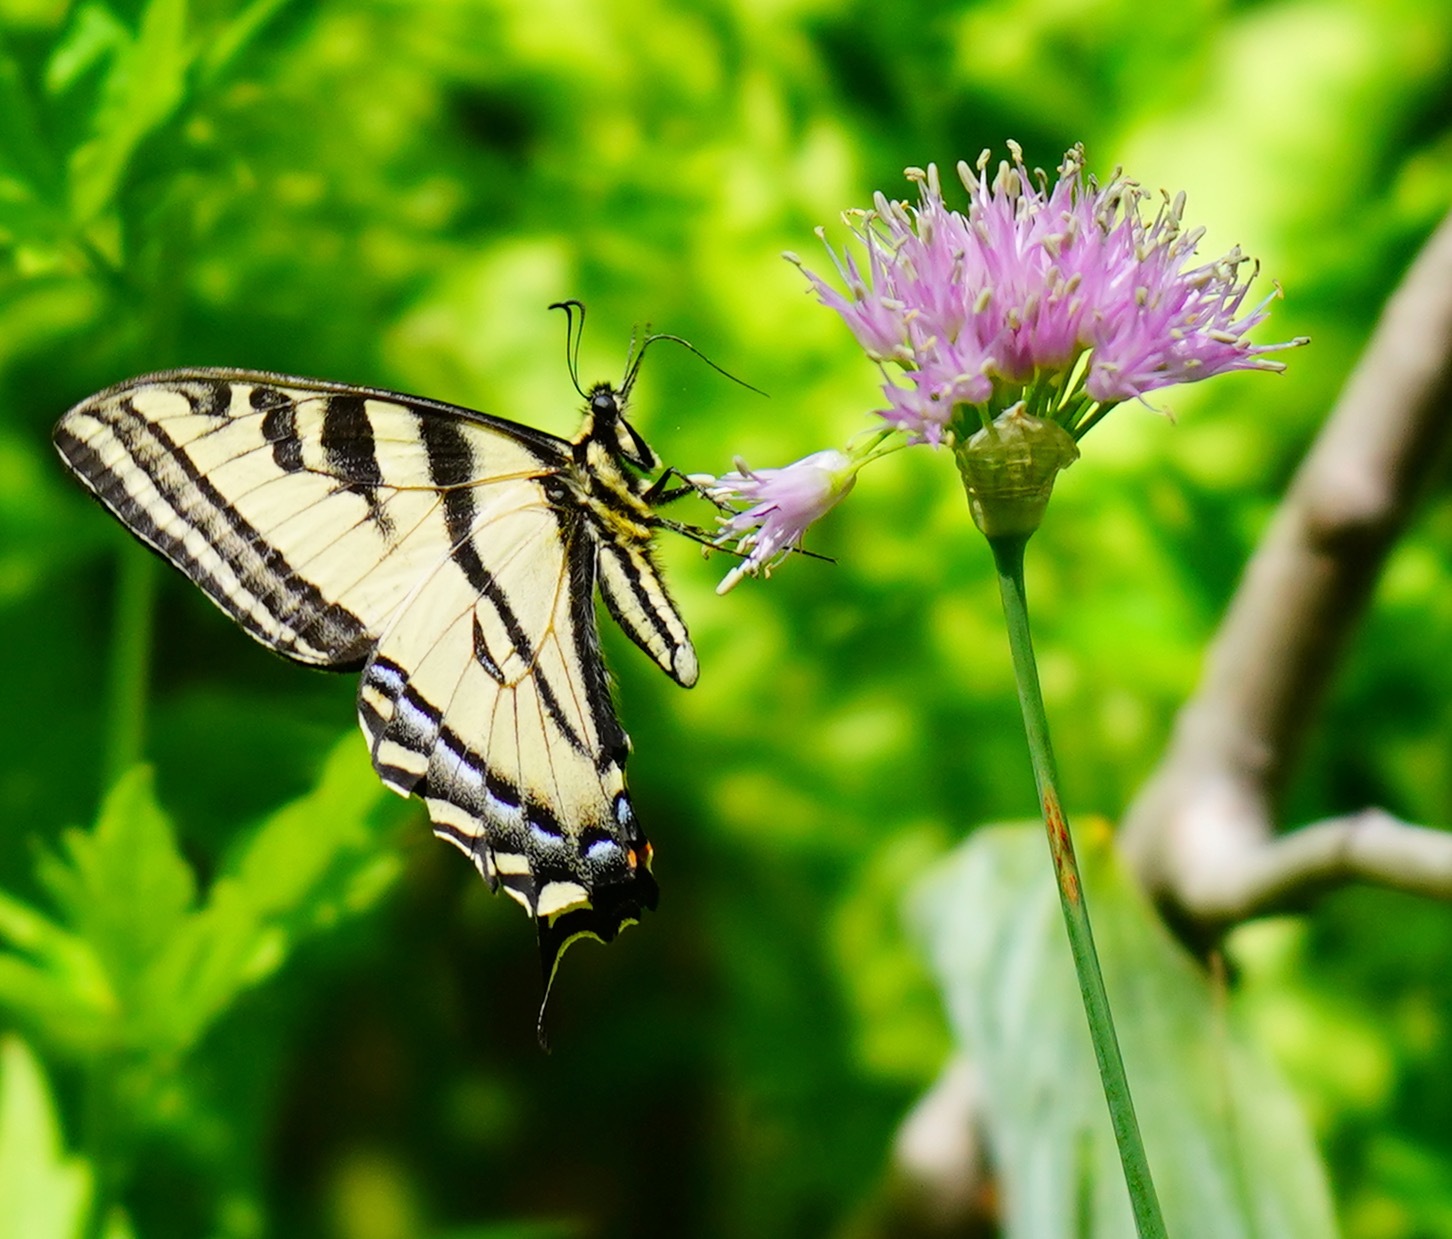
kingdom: Animalia
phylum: Arthropoda
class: Insecta
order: Lepidoptera
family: Papilionidae
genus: Papilio
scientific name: Papilio rutulus
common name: Western tiger swallowtail
